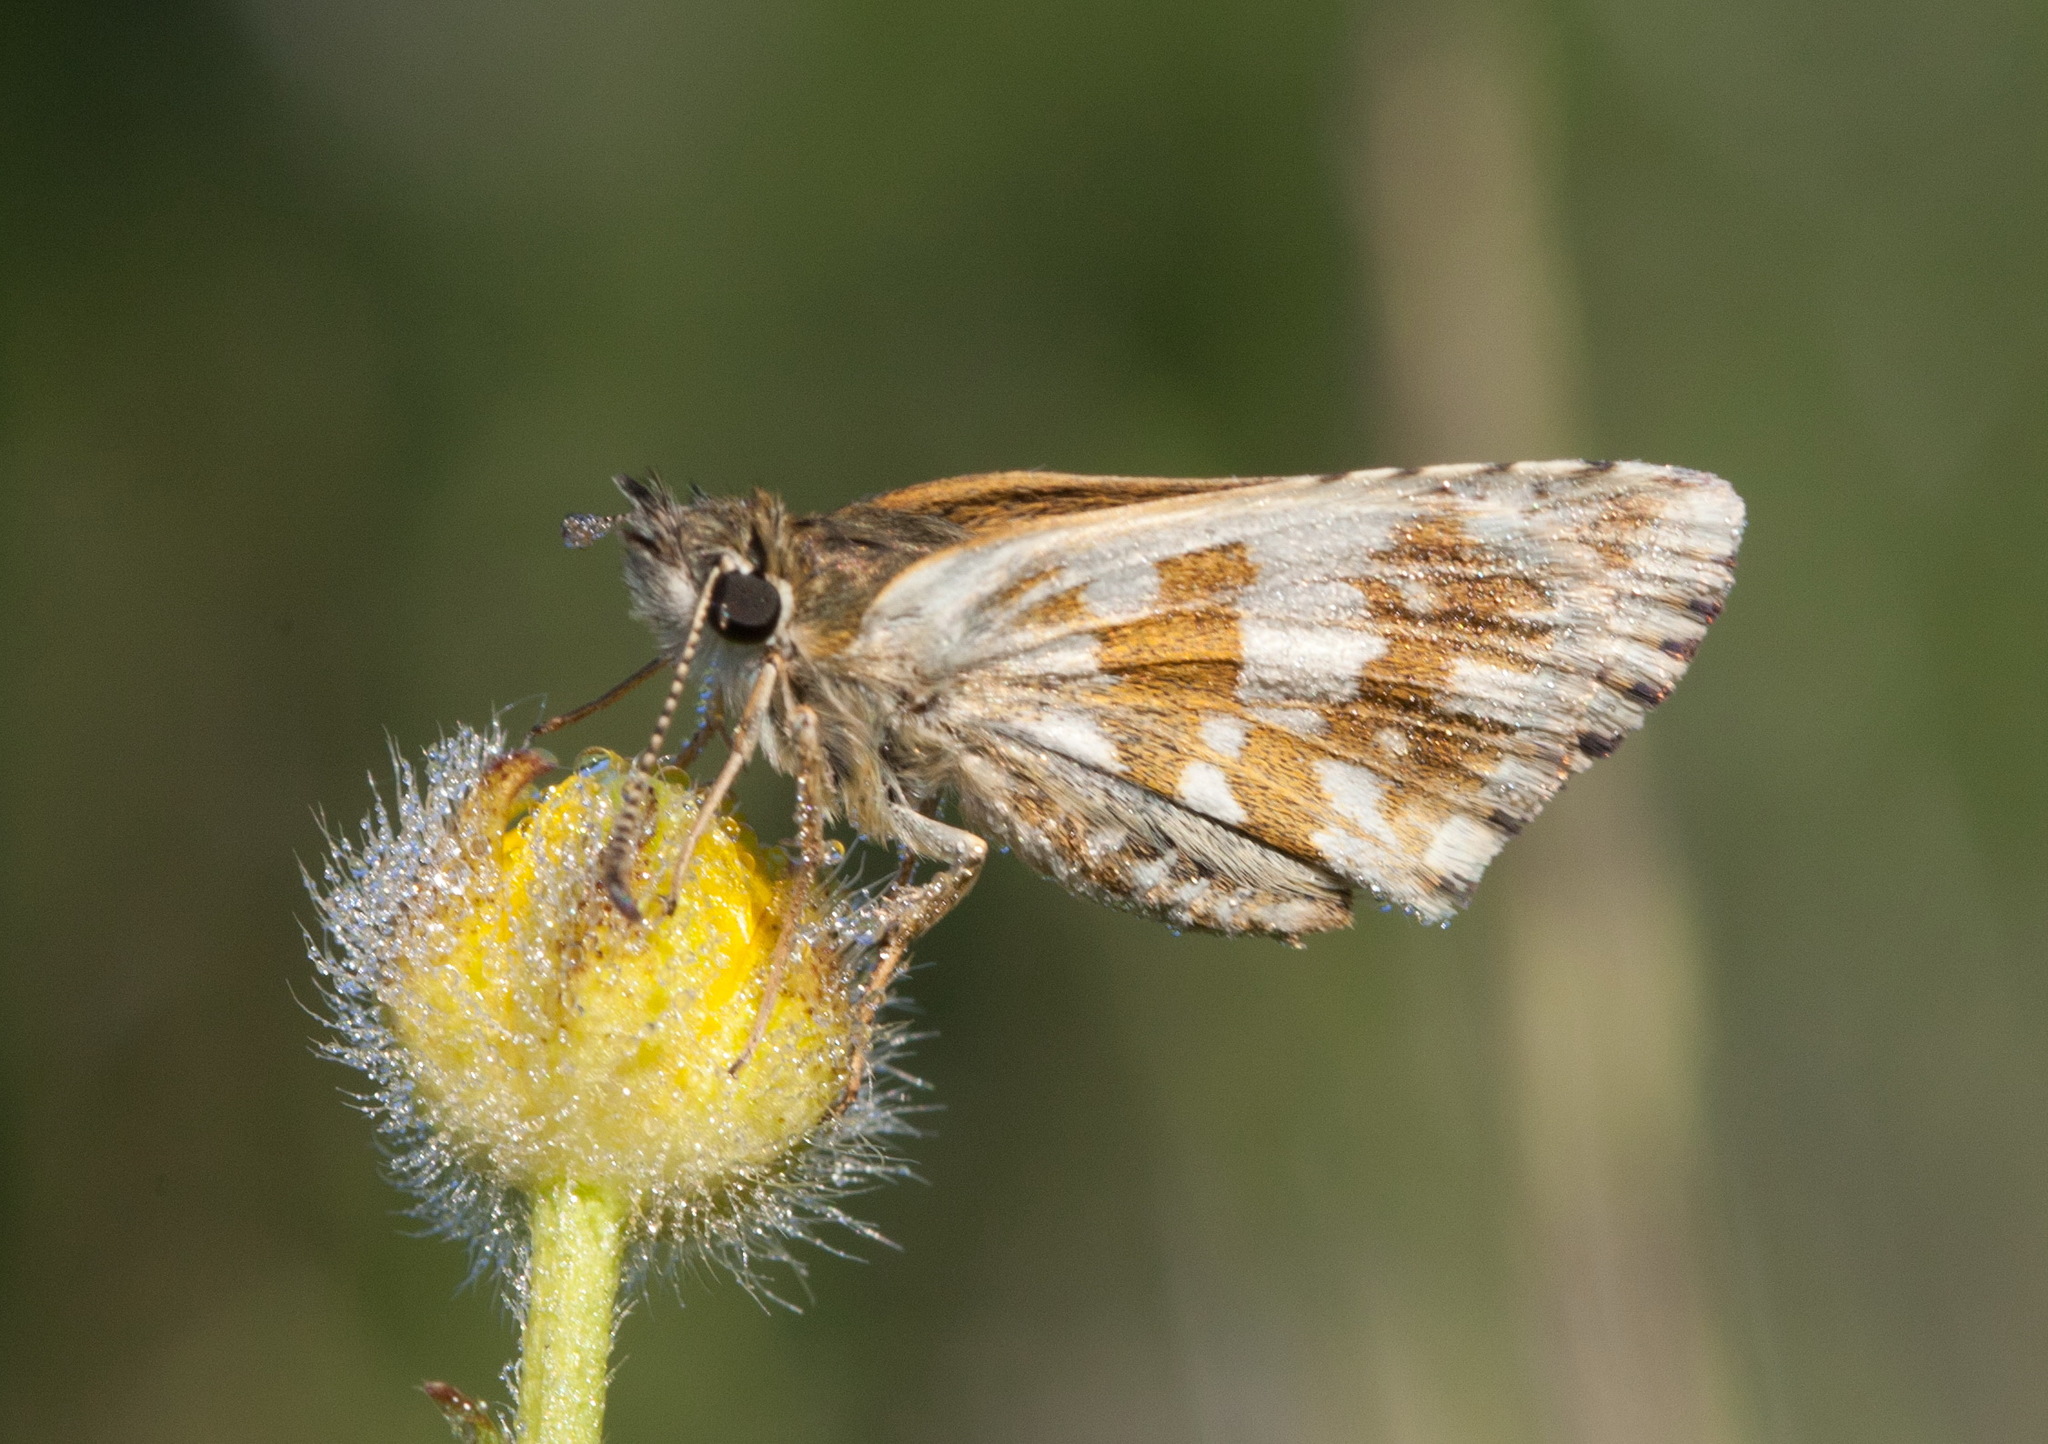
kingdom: Animalia
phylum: Arthropoda
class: Insecta
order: Lepidoptera
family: Hesperiidae
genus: Pyrgus
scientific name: Pyrgus alveus
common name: Large grizzled skipper
